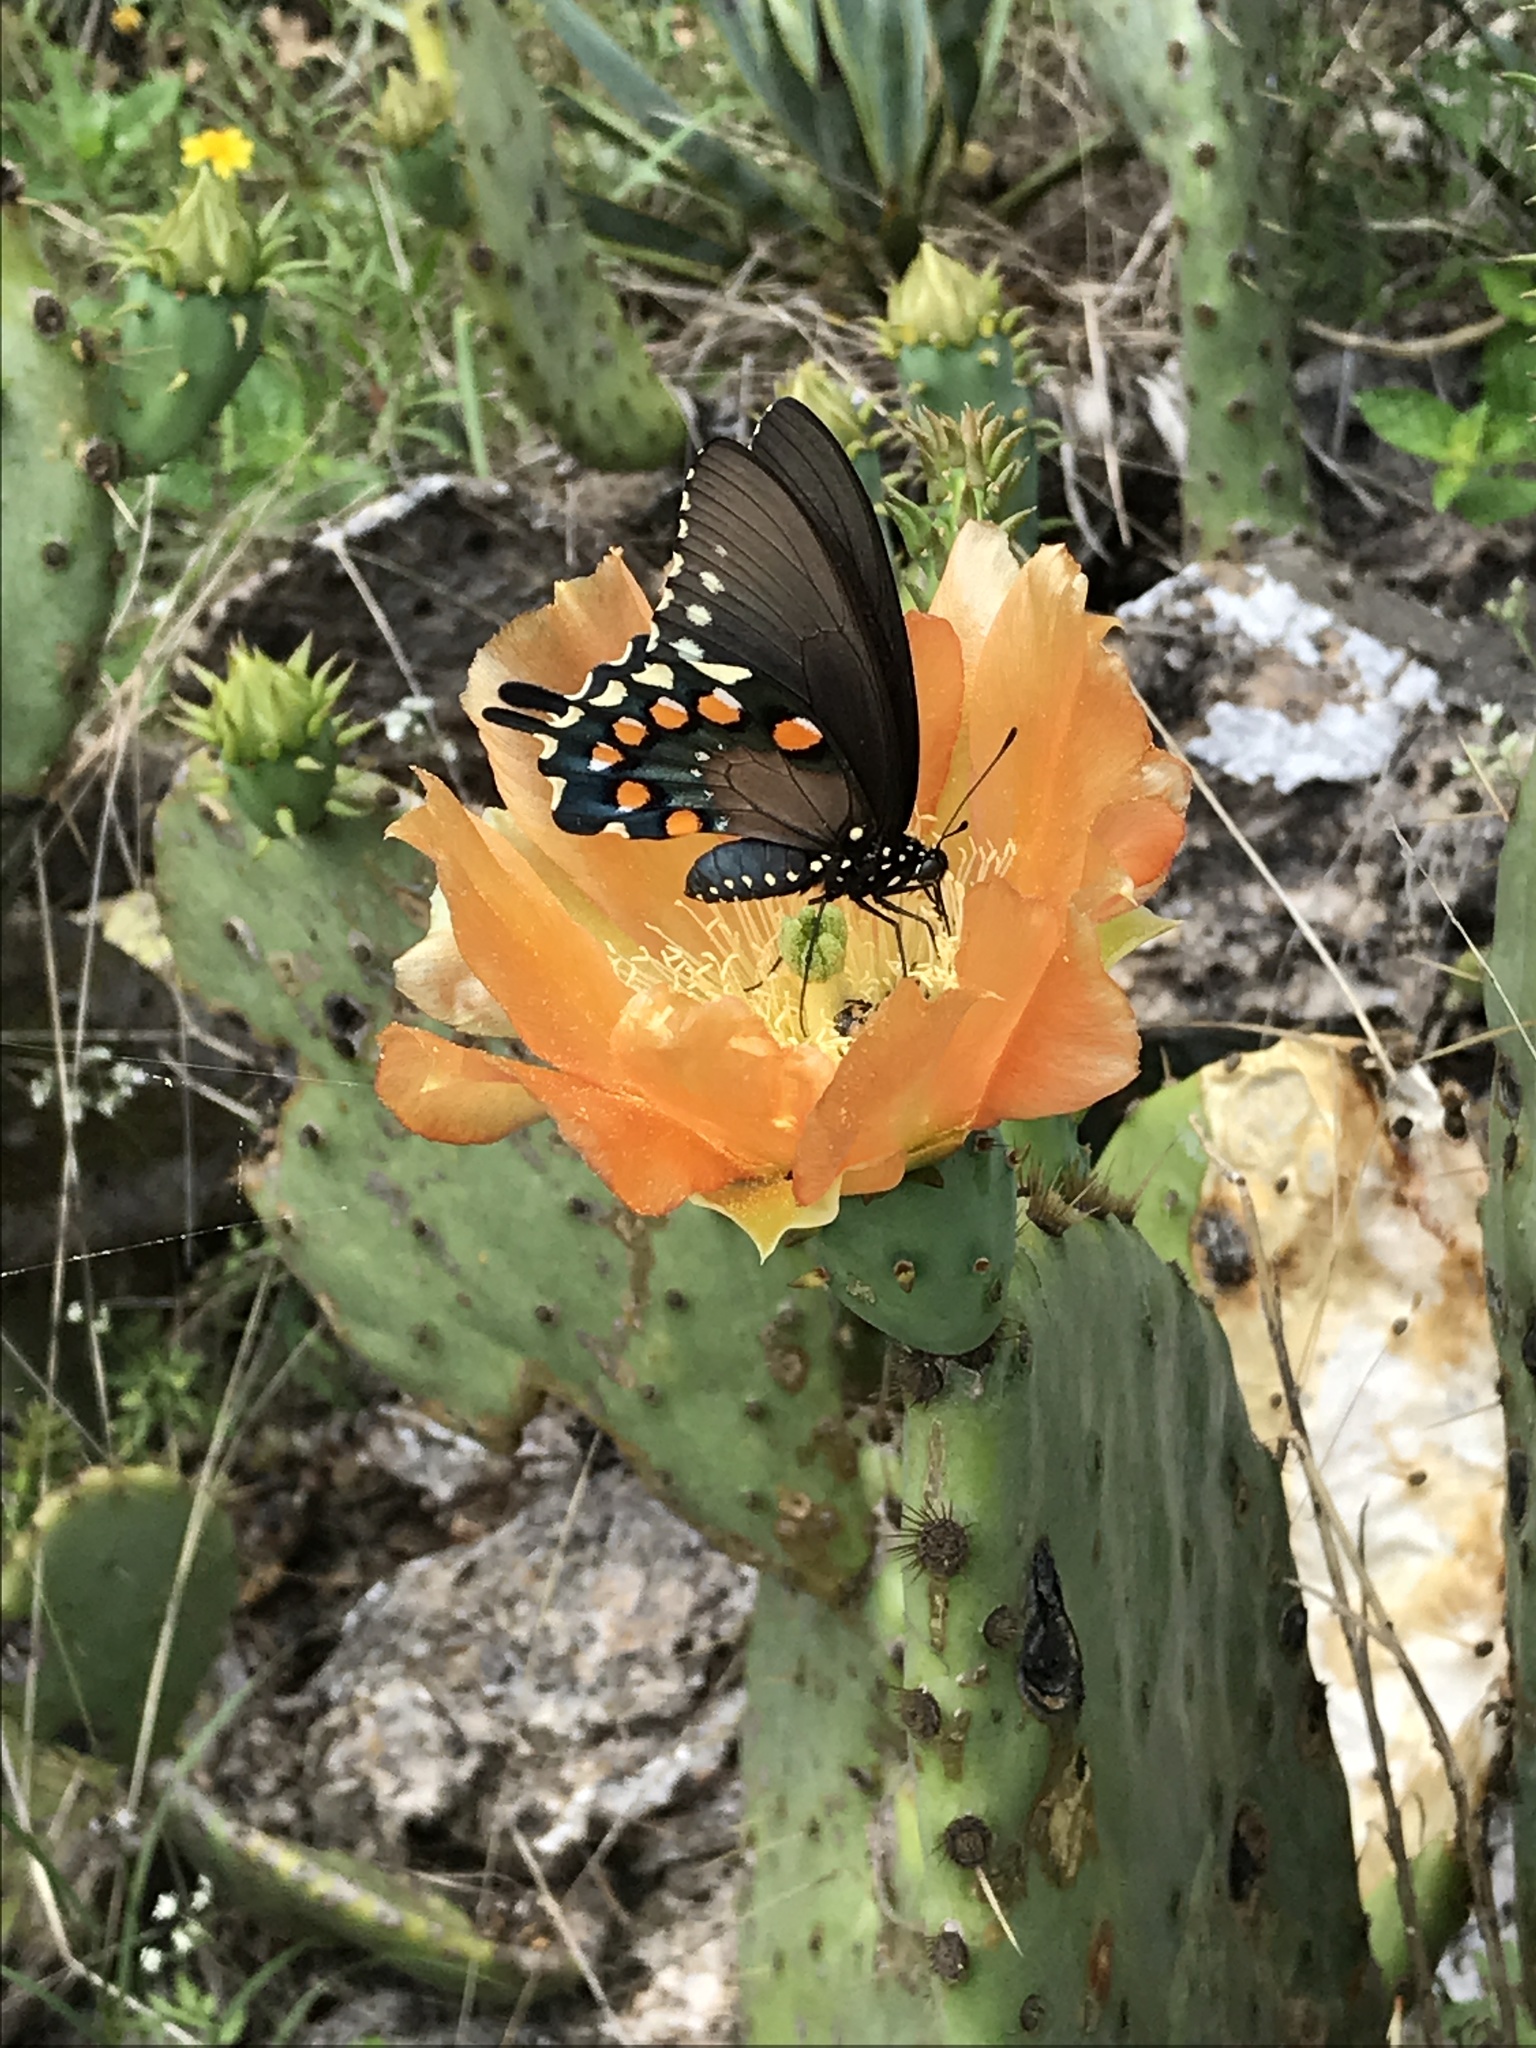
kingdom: Animalia
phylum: Arthropoda
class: Insecta
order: Lepidoptera
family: Papilionidae
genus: Battus
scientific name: Battus philenor
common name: Pipevine swallowtail
